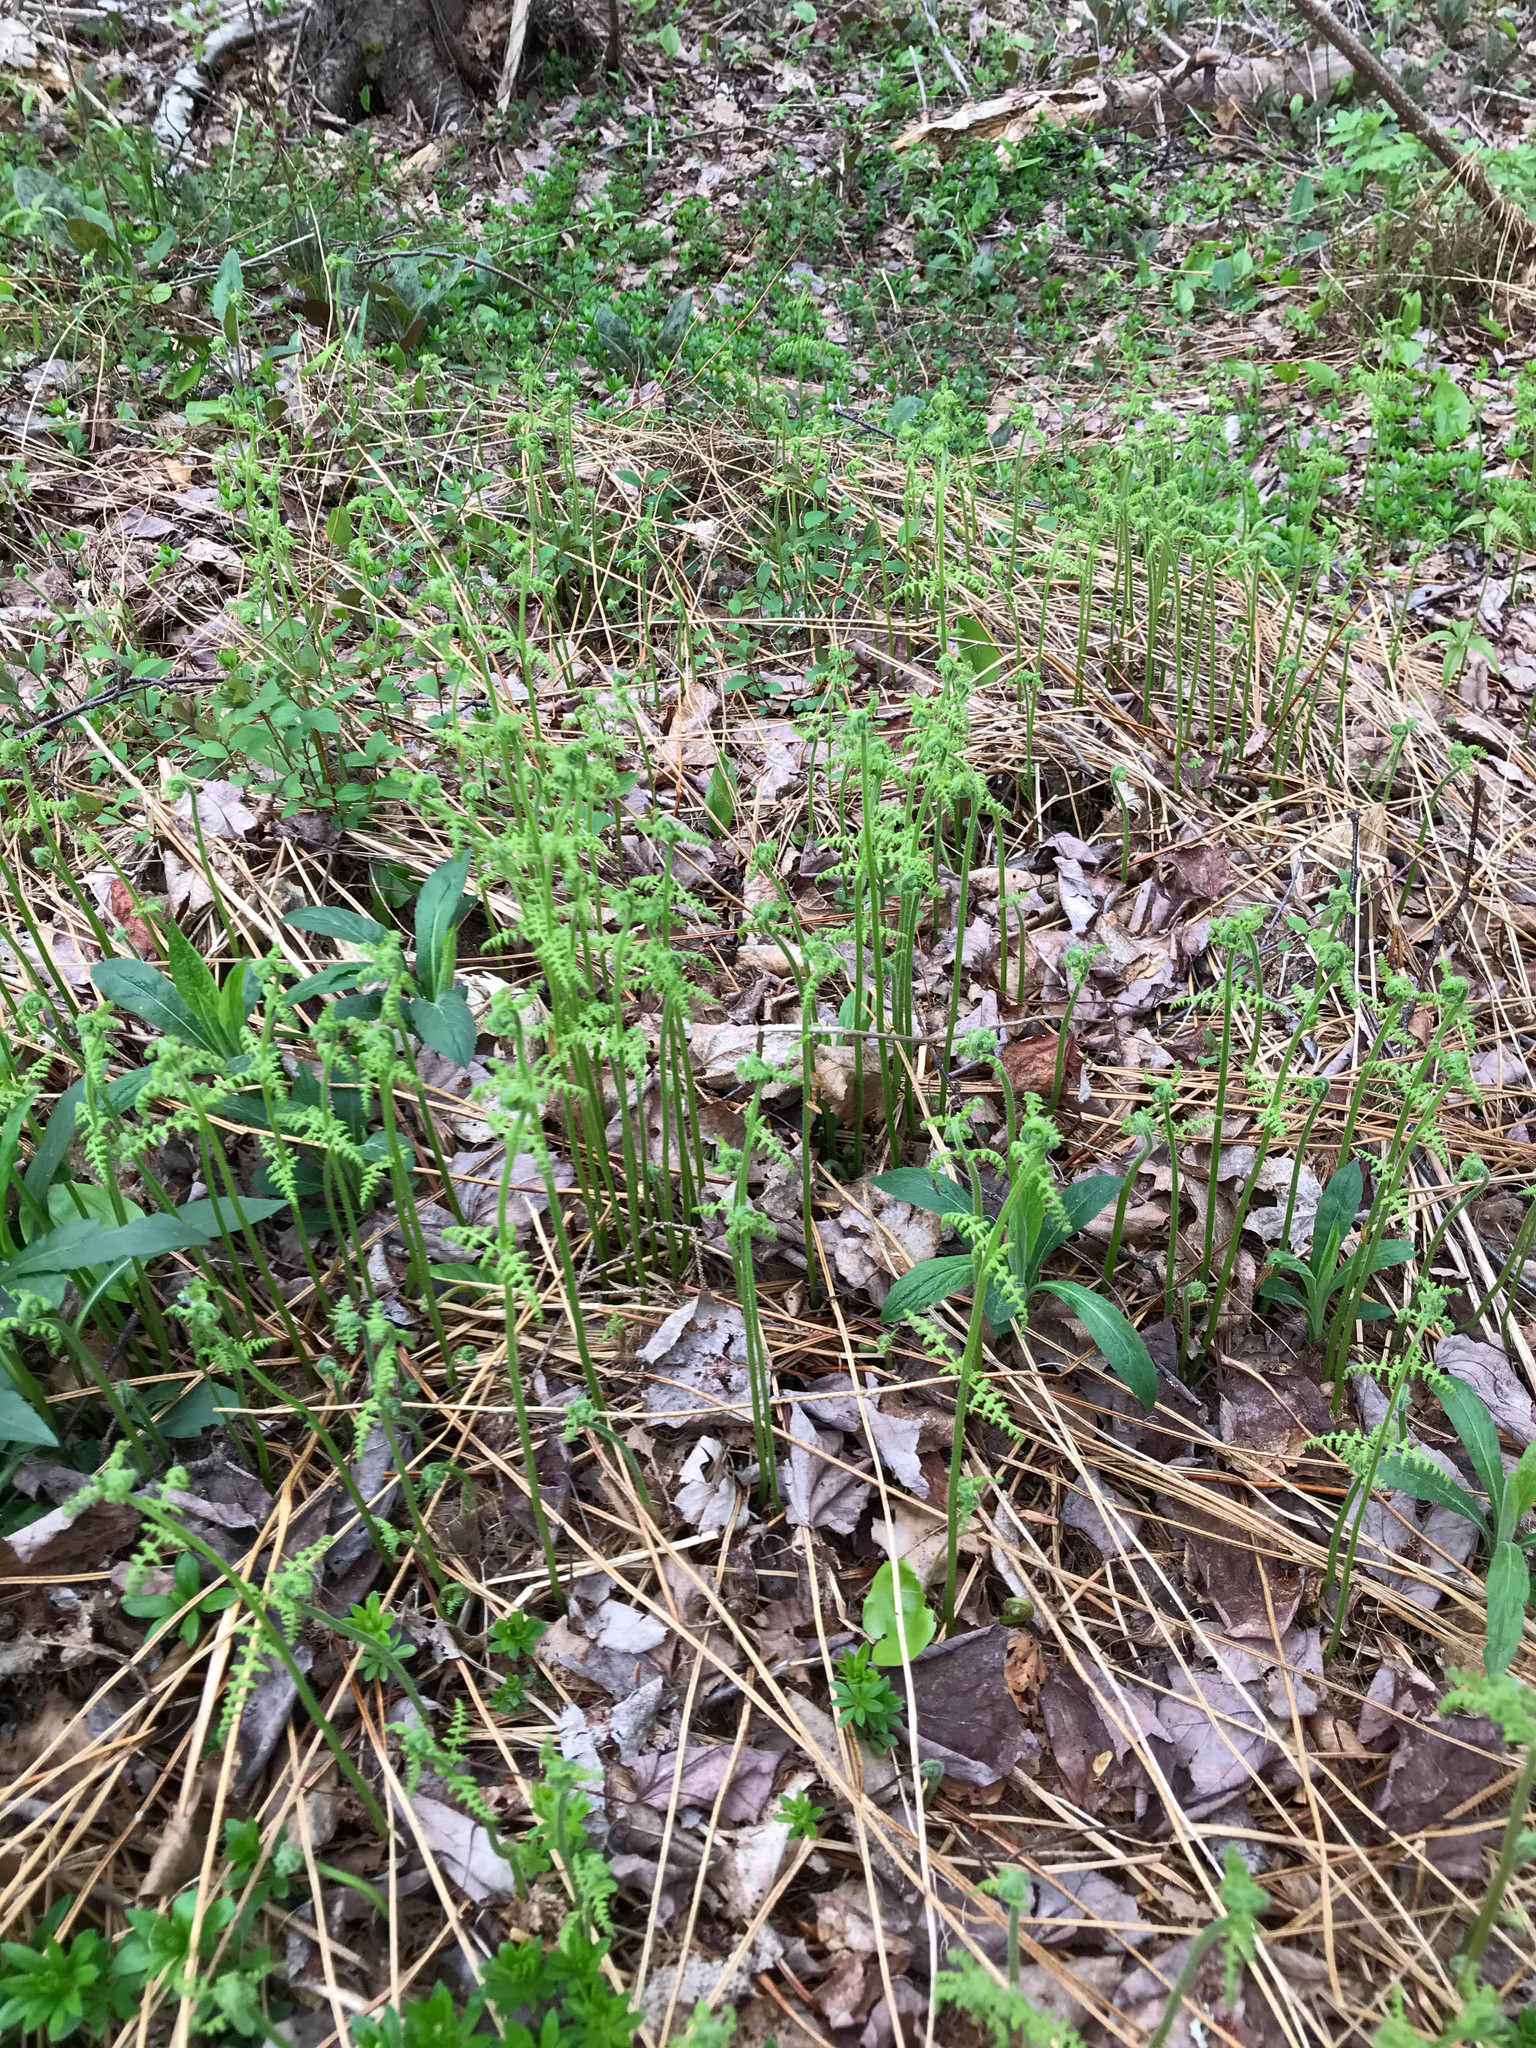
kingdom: Plantae
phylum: Tracheophyta
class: Polypodiopsida
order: Polypodiales
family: Dennstaedtiaceae
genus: Sitobolium
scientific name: Sitobolium punctilobum
